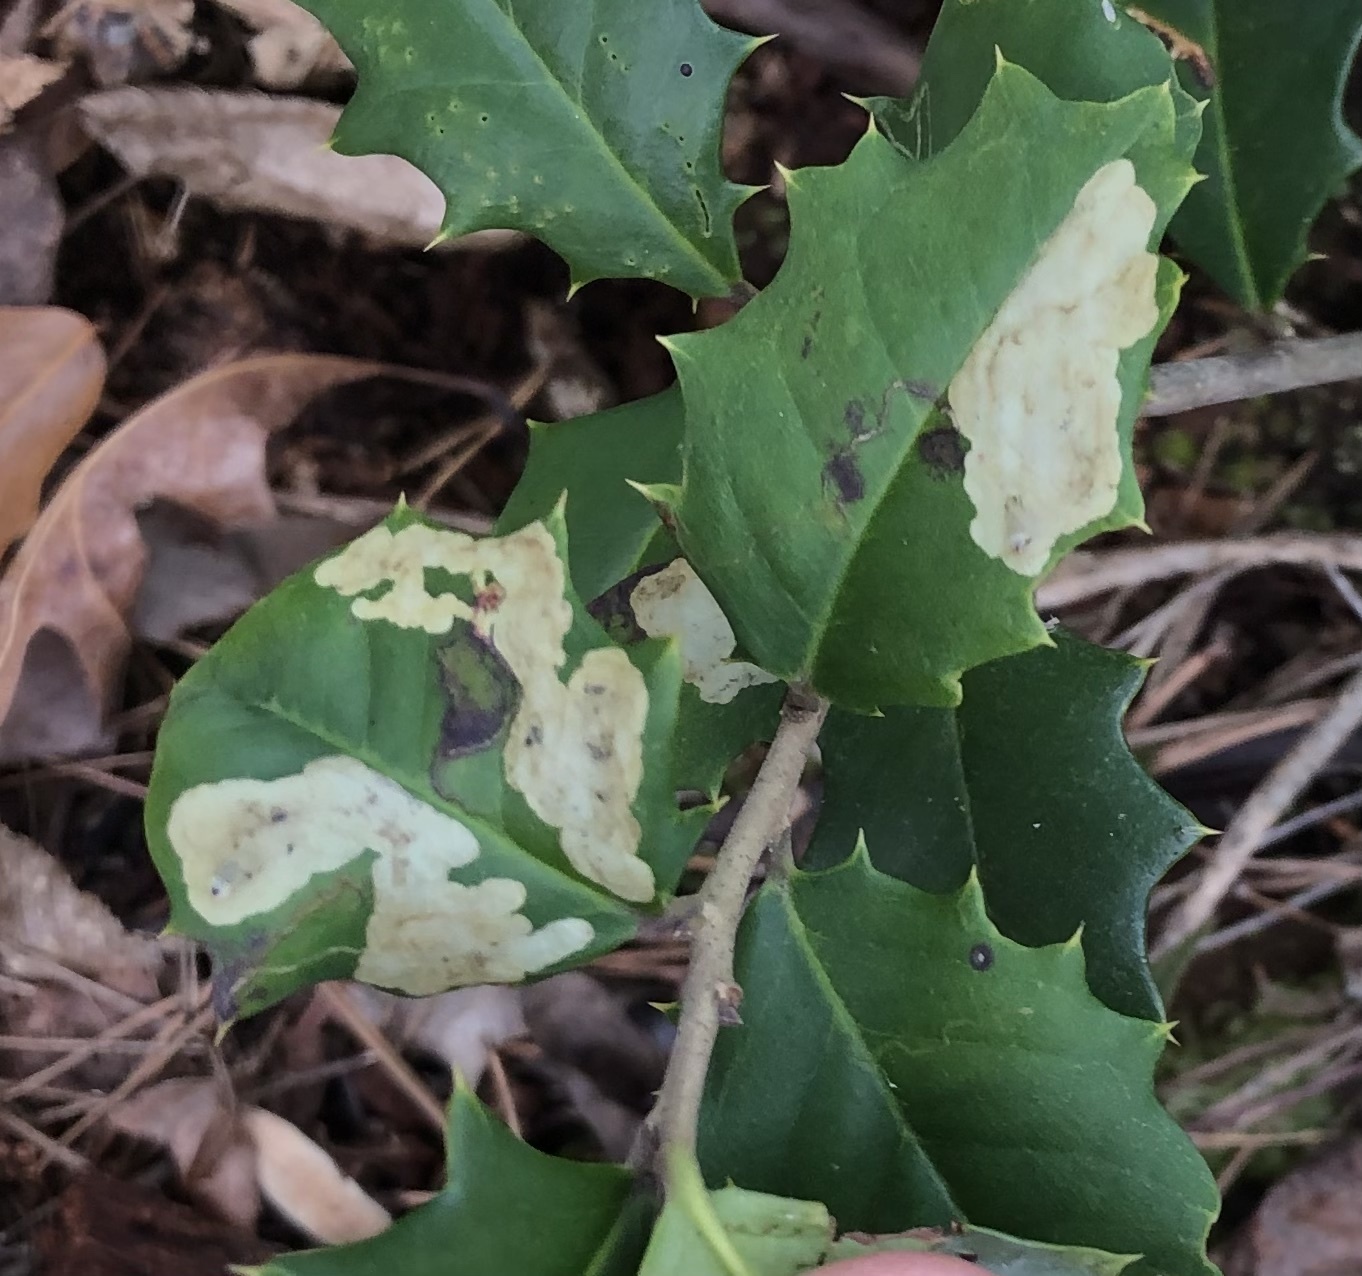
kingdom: Animalia
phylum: Arthropoda
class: Insecta
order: Diptera
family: Agromyzidae
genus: Phytomyza
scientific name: Phytomyza ilicicola
